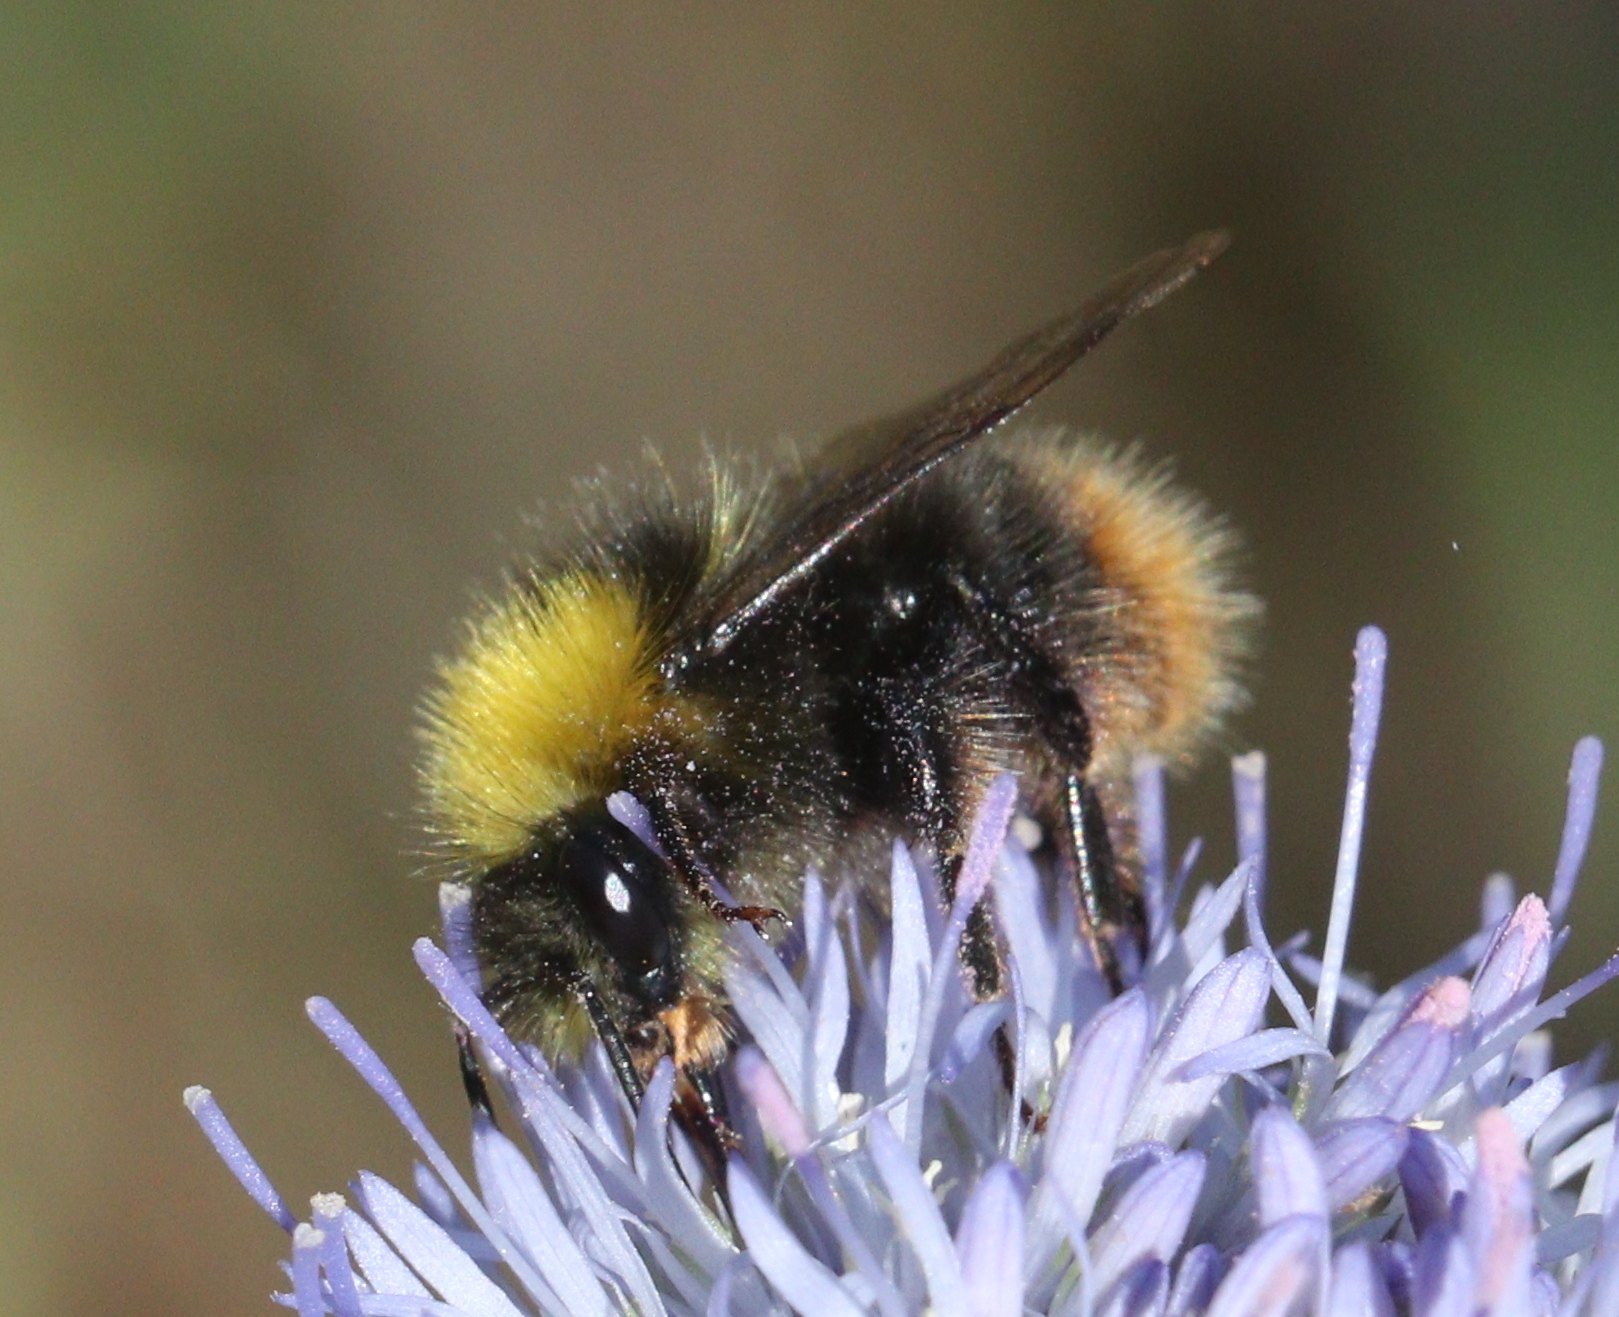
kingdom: Animalia
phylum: Arthropoda
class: Insecta
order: Hymenoptera
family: Apidae
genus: Bombus
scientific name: Bombus pratorum
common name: Early humble-bee
